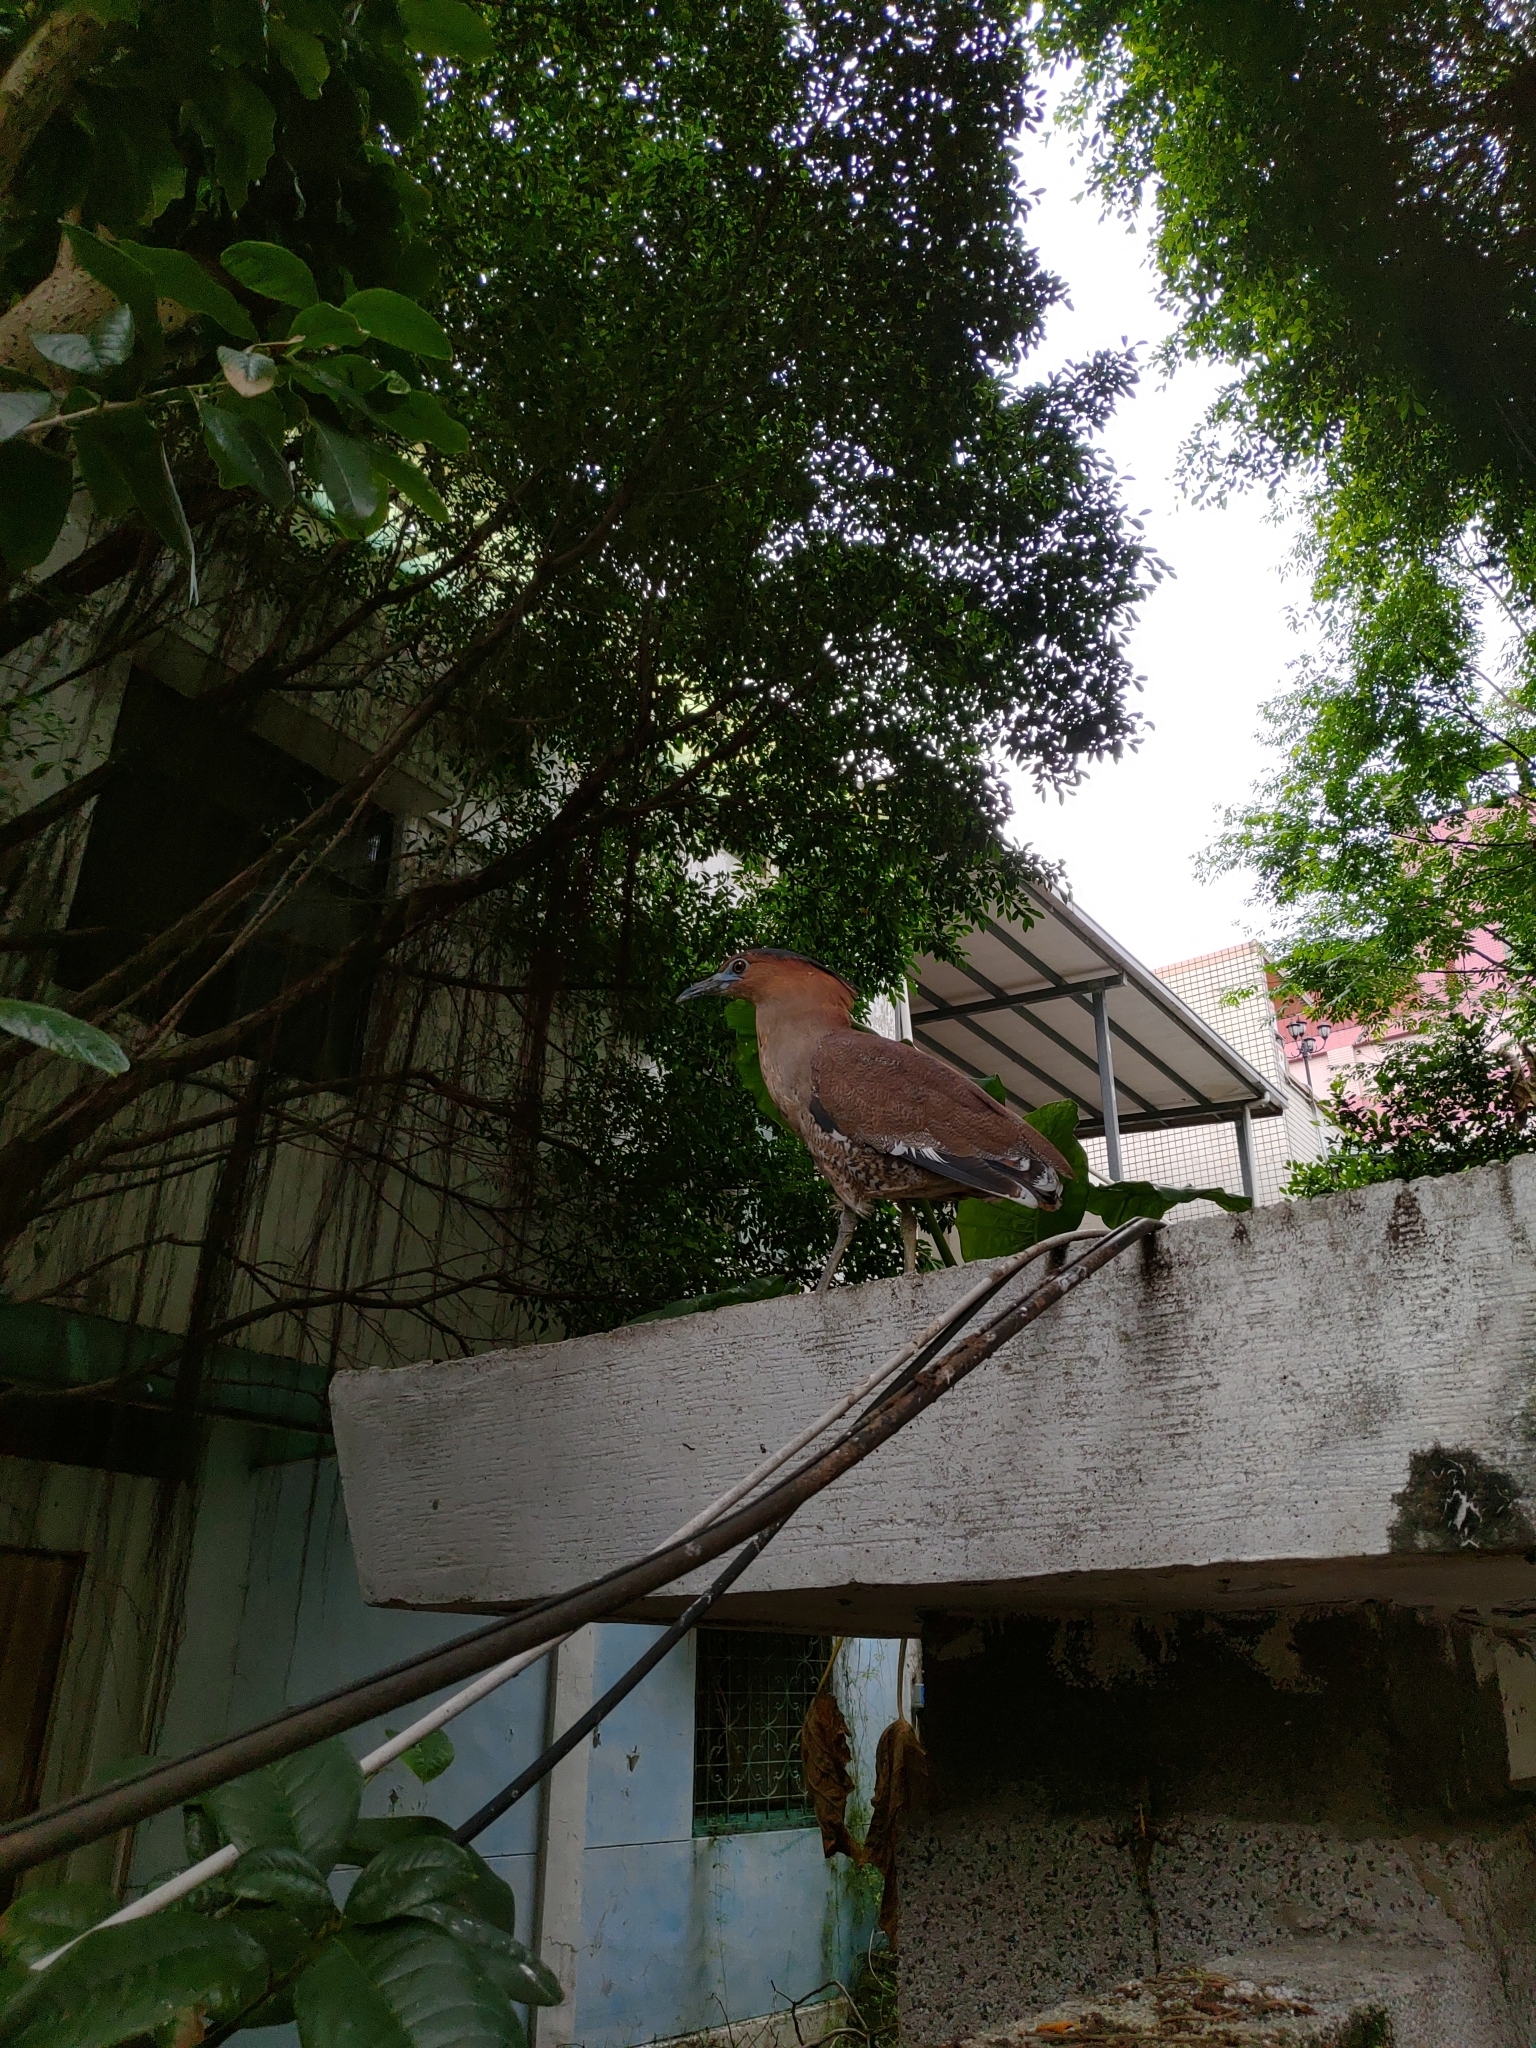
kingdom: Animalia
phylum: Chordata
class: Aves
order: Pelecaniformes
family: Ardeidae
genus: Gorsachius
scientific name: Gorsachius melanolophus
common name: Malayan night heron
